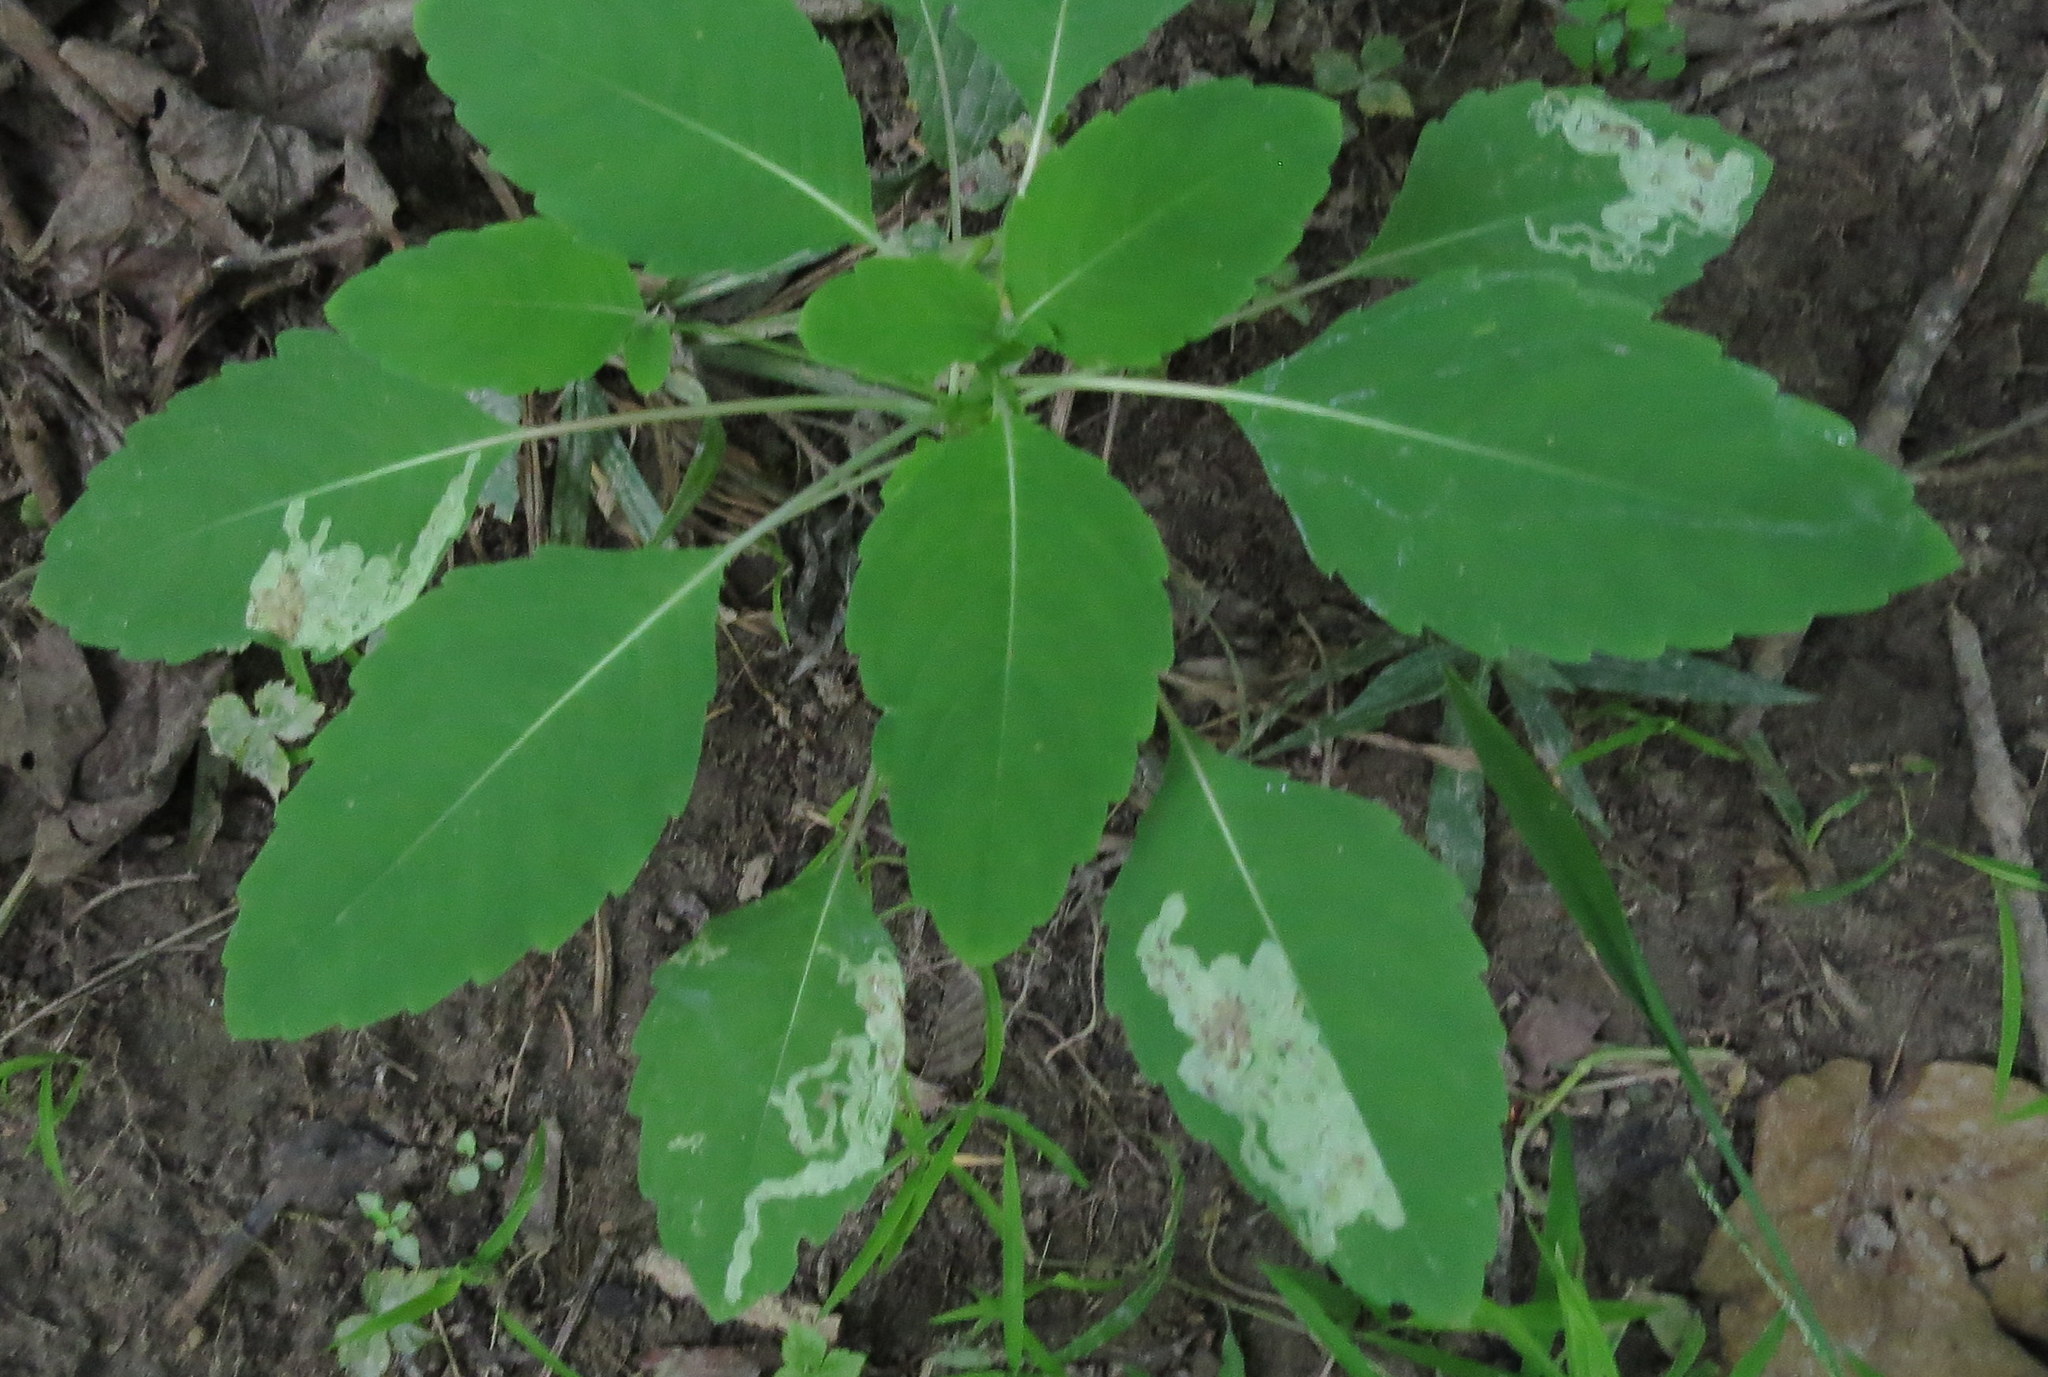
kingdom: Animalia
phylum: Arthropoda
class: Insecta
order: Diptera
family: Agromyzidae
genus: Phytoliriomyza
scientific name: Phytoliriomyza melampyga
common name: Jewelweed leaf-miner fly
